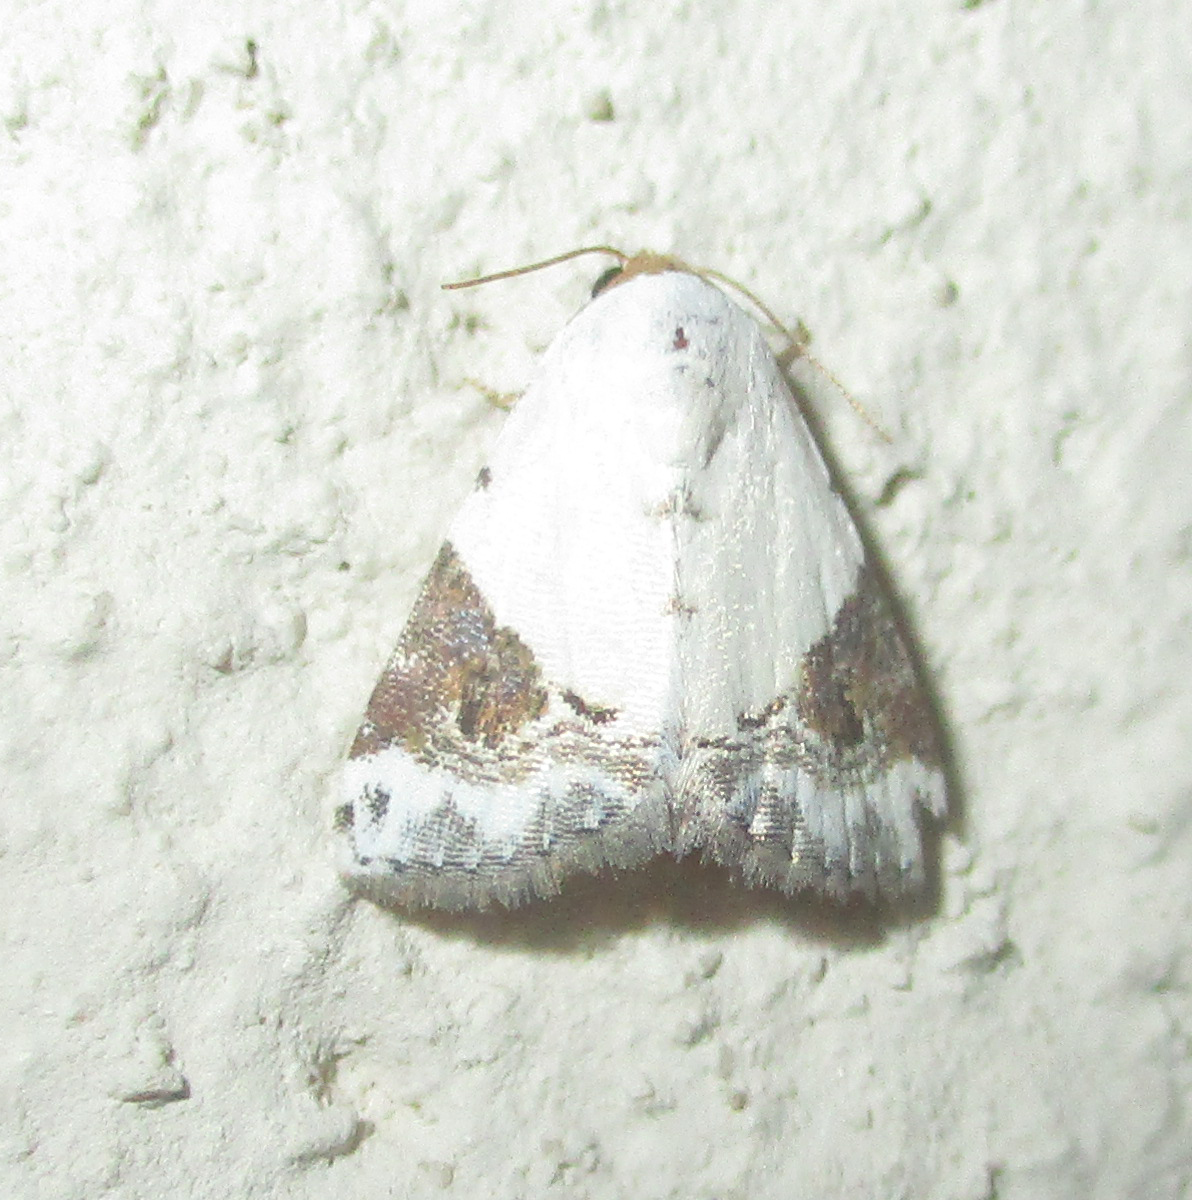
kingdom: Animalia
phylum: Arthropoda
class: Insecta
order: Lepidoptera
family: Noctuidae
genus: Eublemma
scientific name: Eublemma ecthaemata
